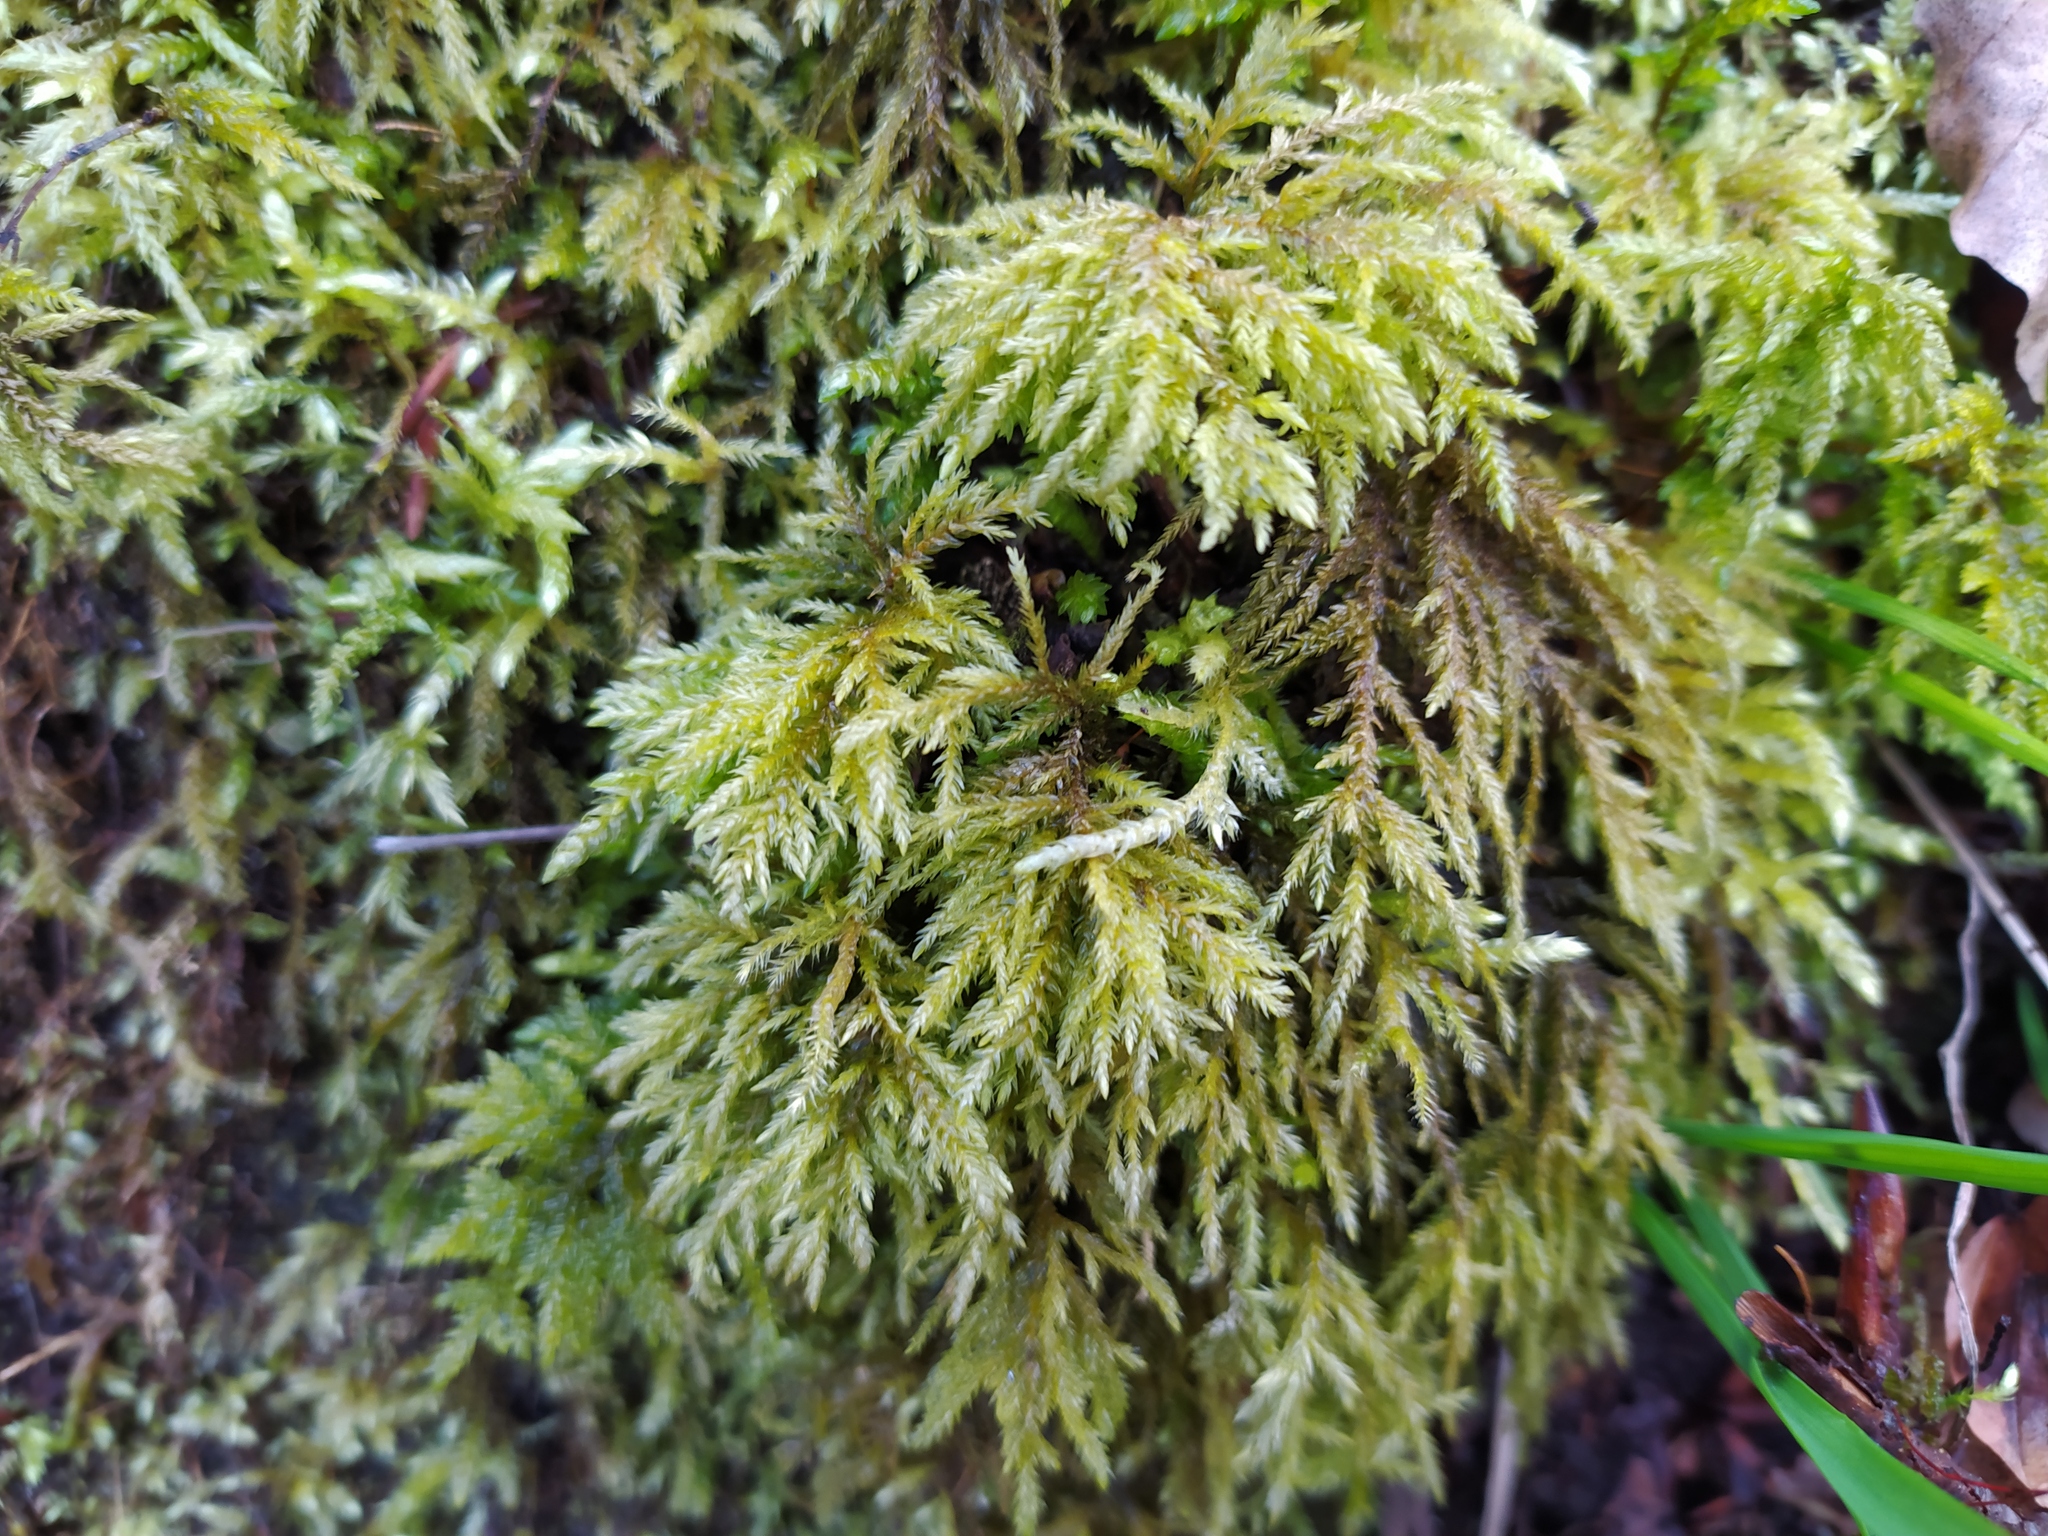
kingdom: Plantae
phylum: Bryophyta
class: Bryopsida
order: Hypnales
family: Neckeraceae
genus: Thamnobryum
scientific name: Thamnobryum alopecurum
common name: Fox-tail feather-moss
